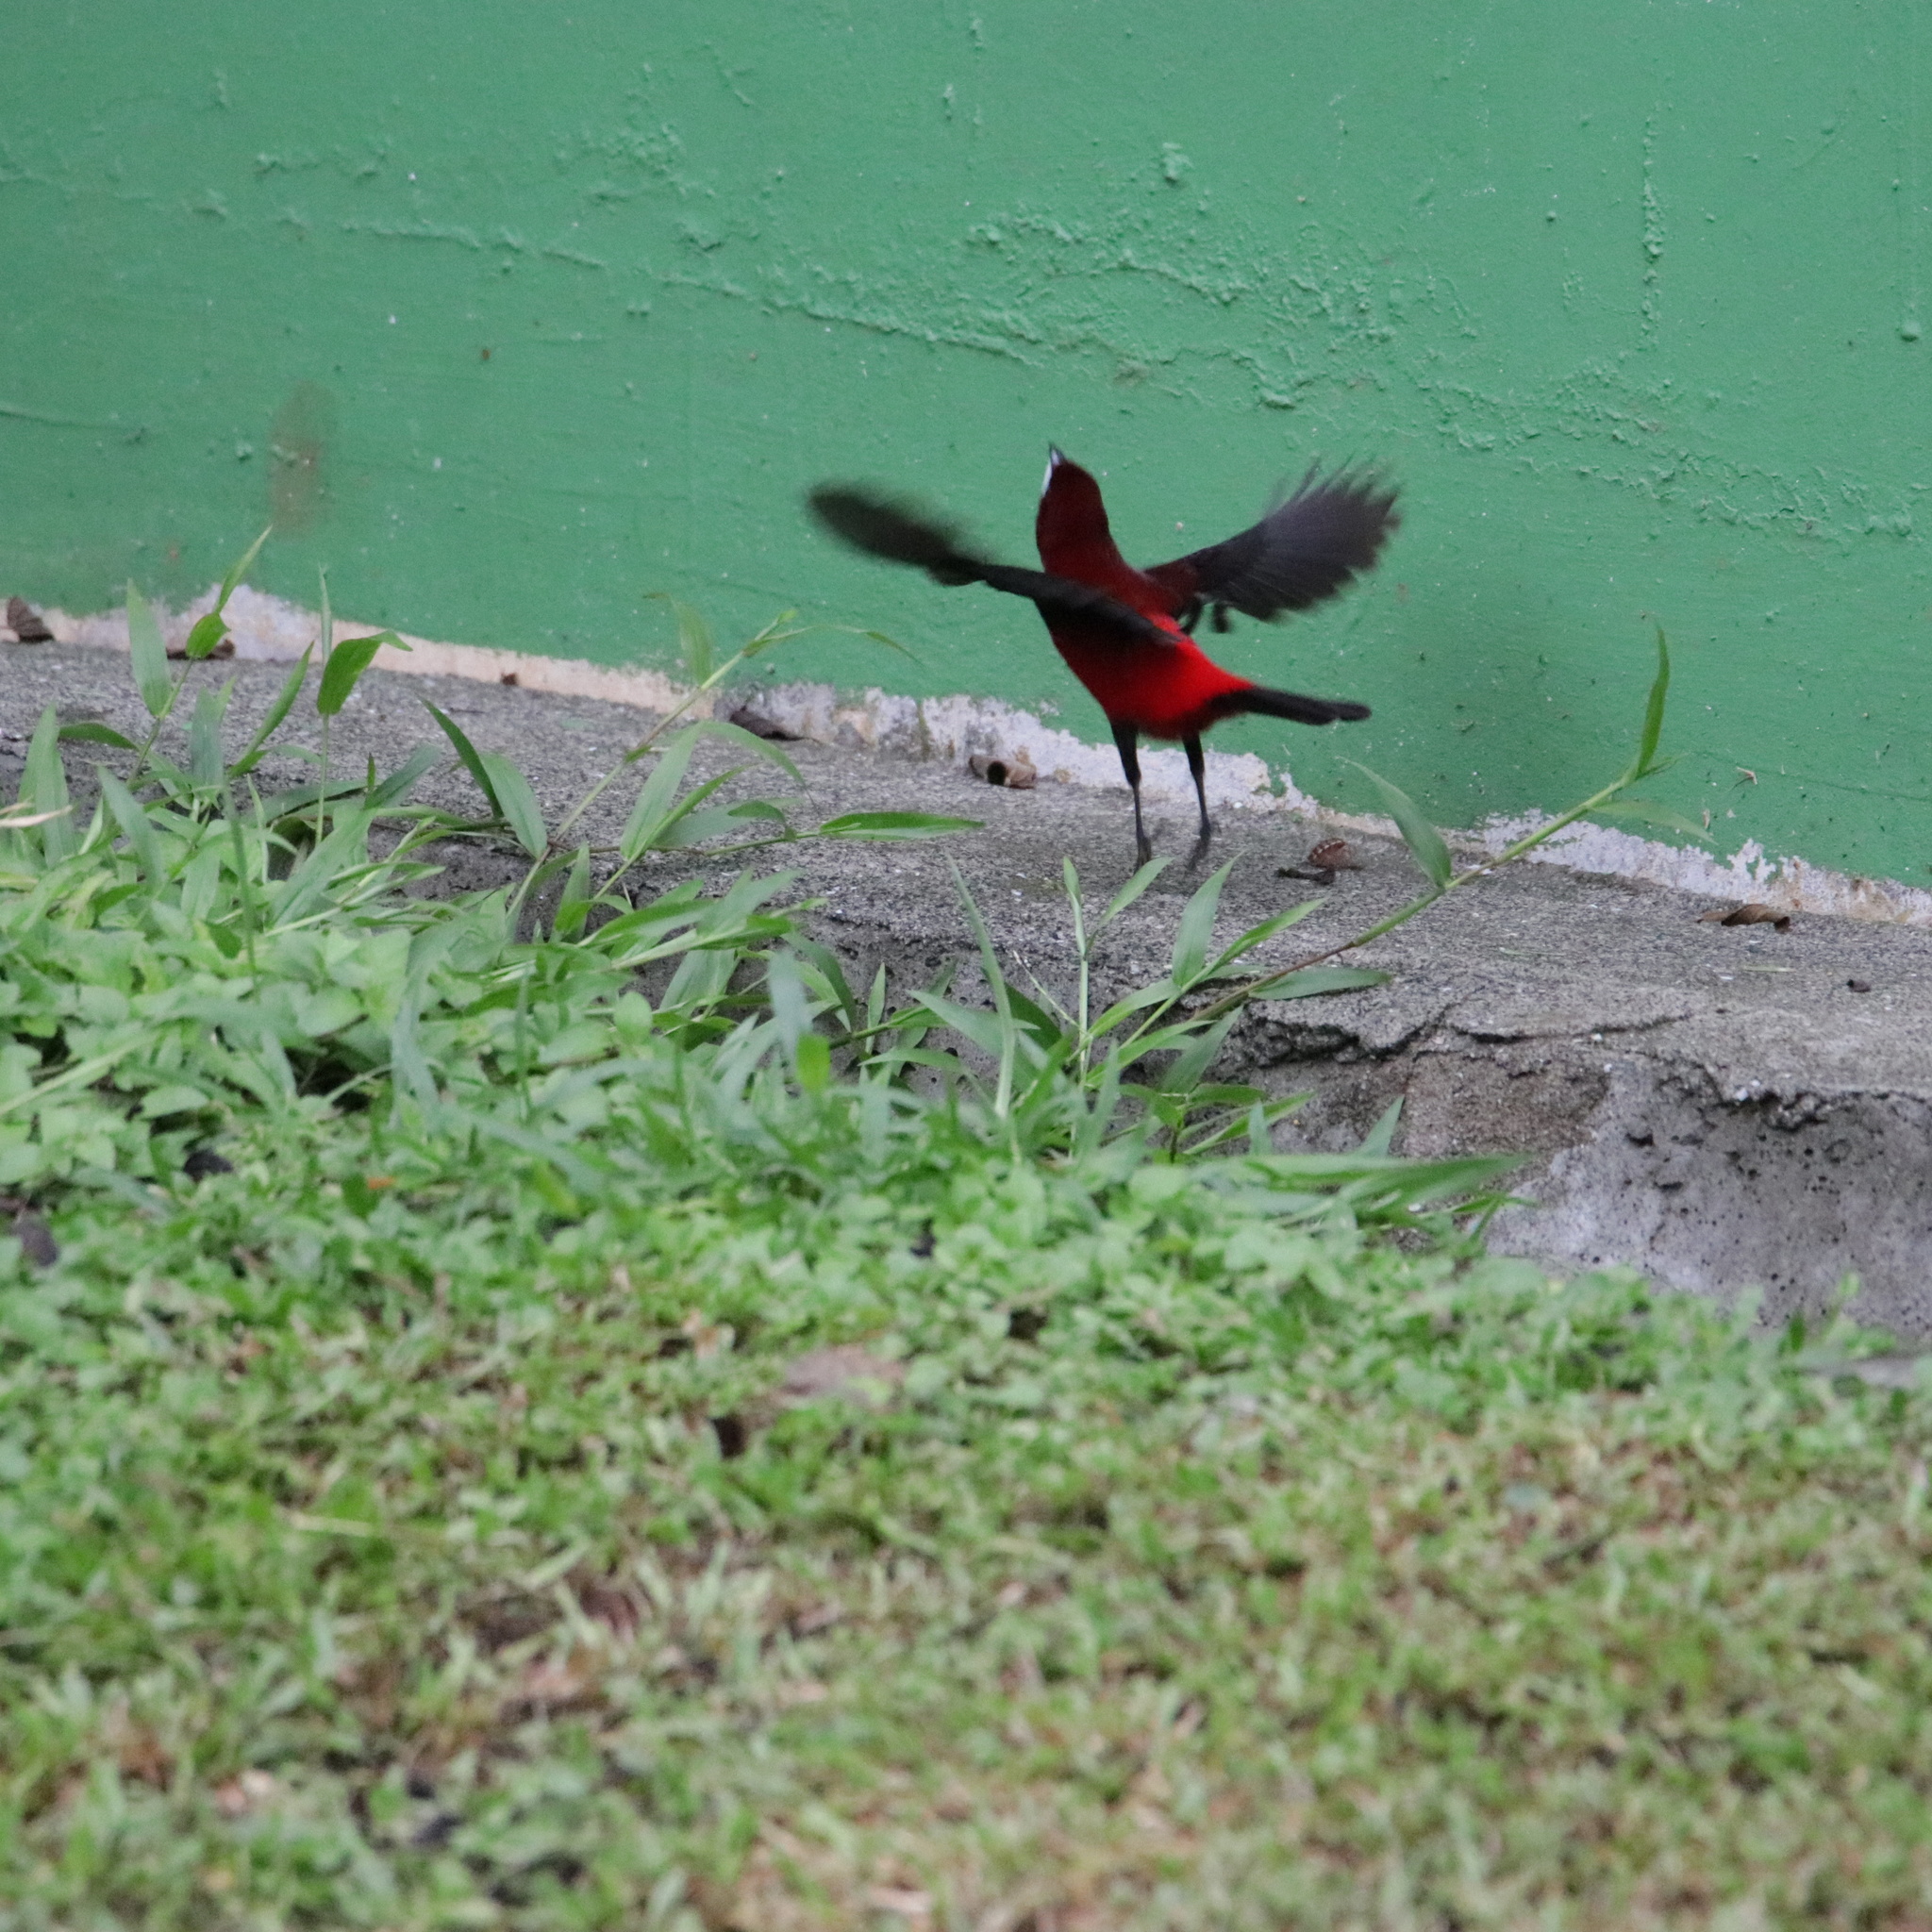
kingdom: Animalia
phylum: Chordata
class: Aves
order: Passeriformes
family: Thraupidae
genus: Ramphocelus
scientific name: Ramphocelus dimidiatus
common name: Crimson-backed tanager
